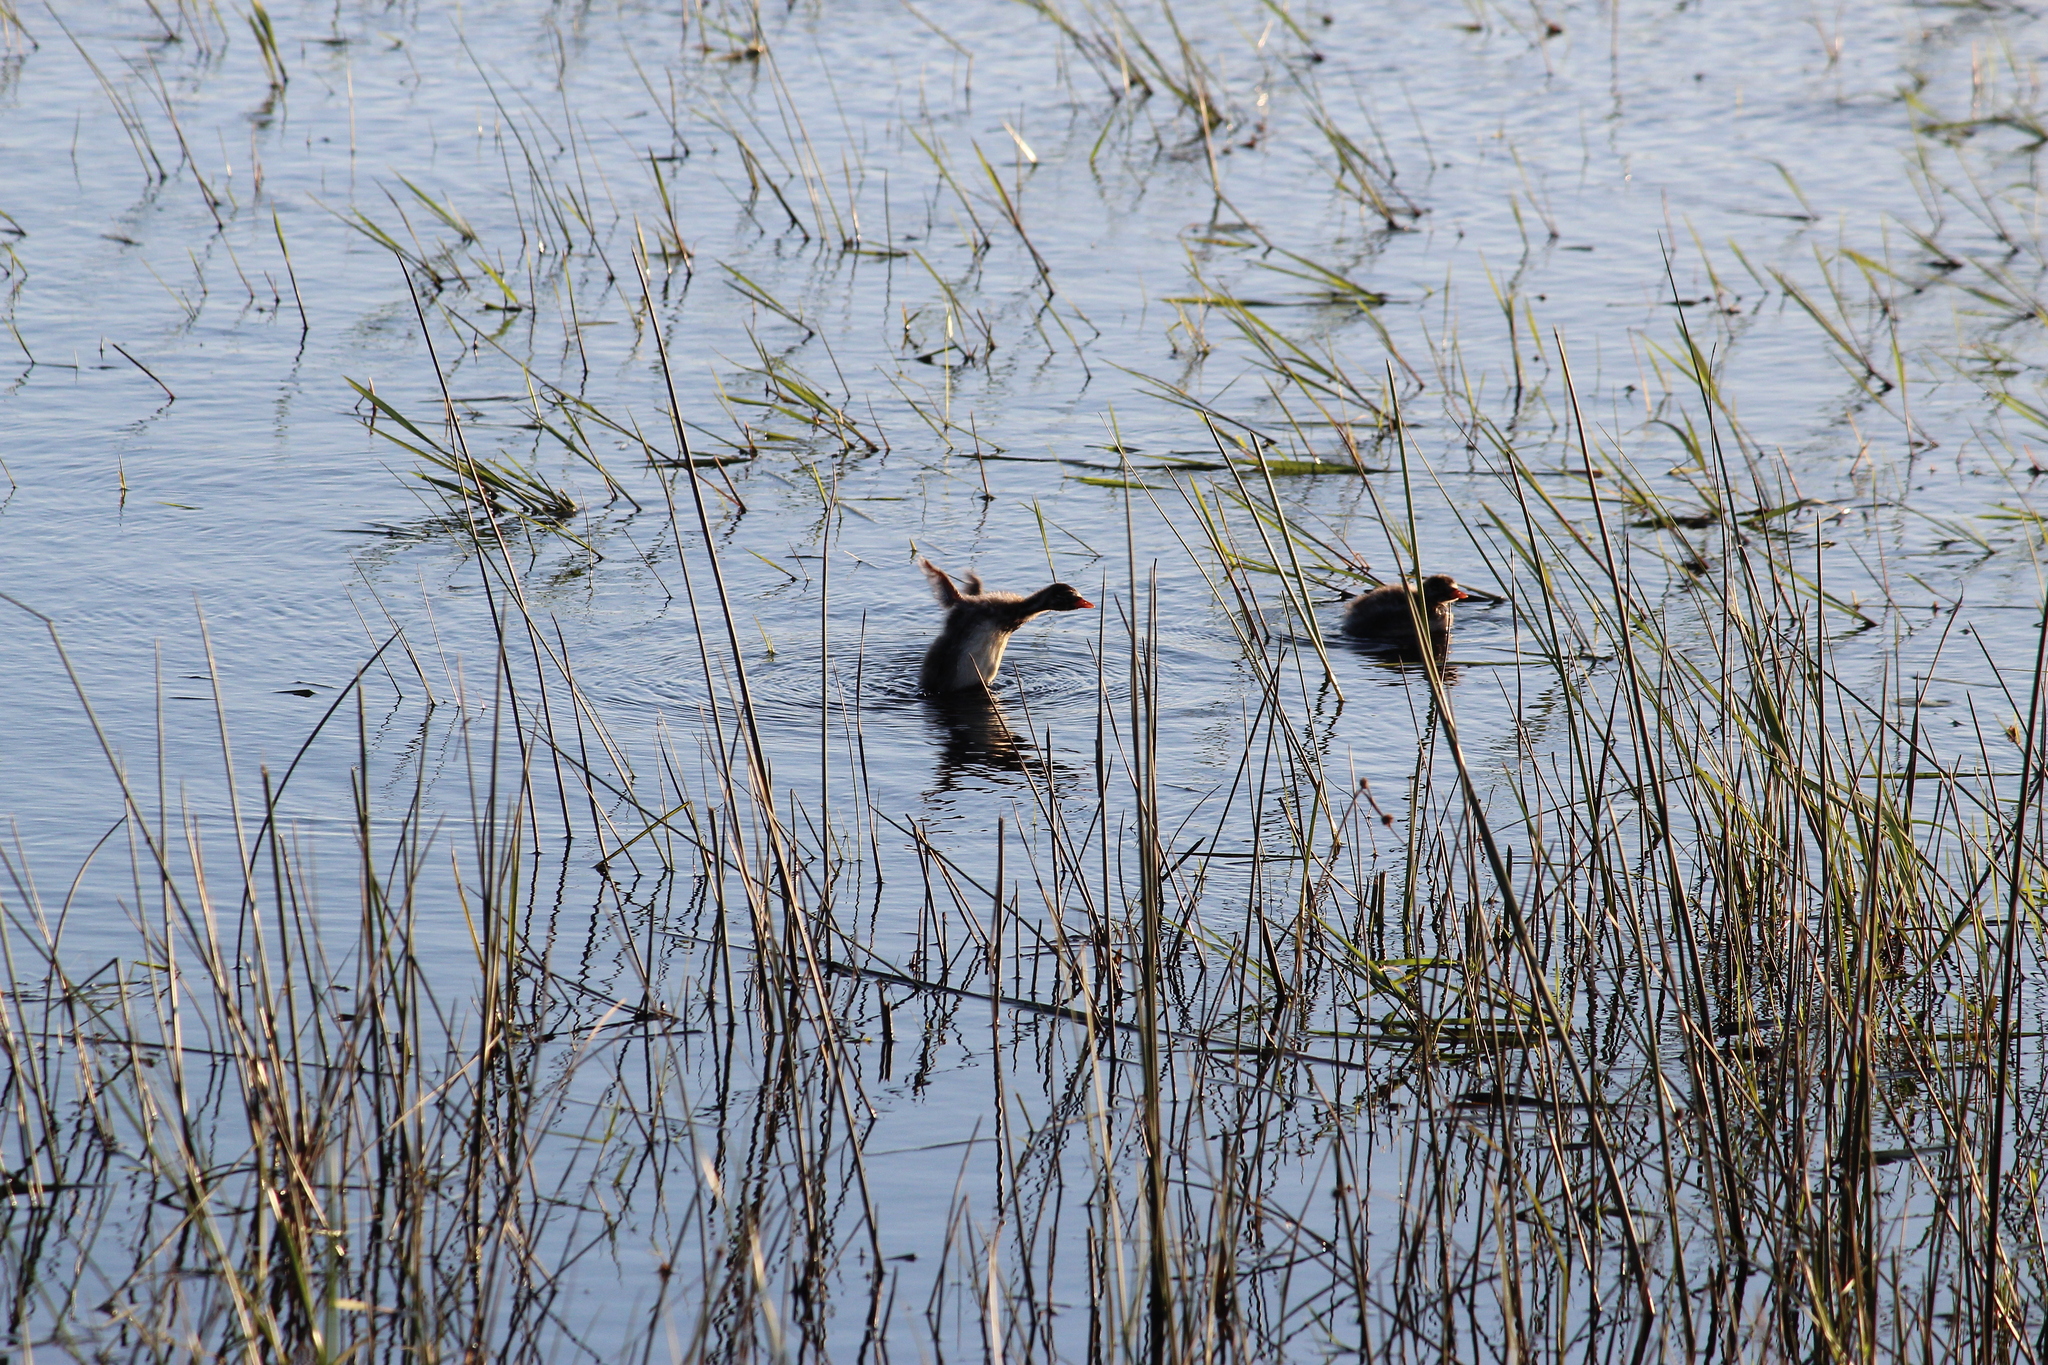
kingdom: Animalia
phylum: Chordata
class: Aves
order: Podicipediformes
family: Podicipedidae
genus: Tachybaptus
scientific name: Tachybaptus ruficollis
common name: Little grebe
